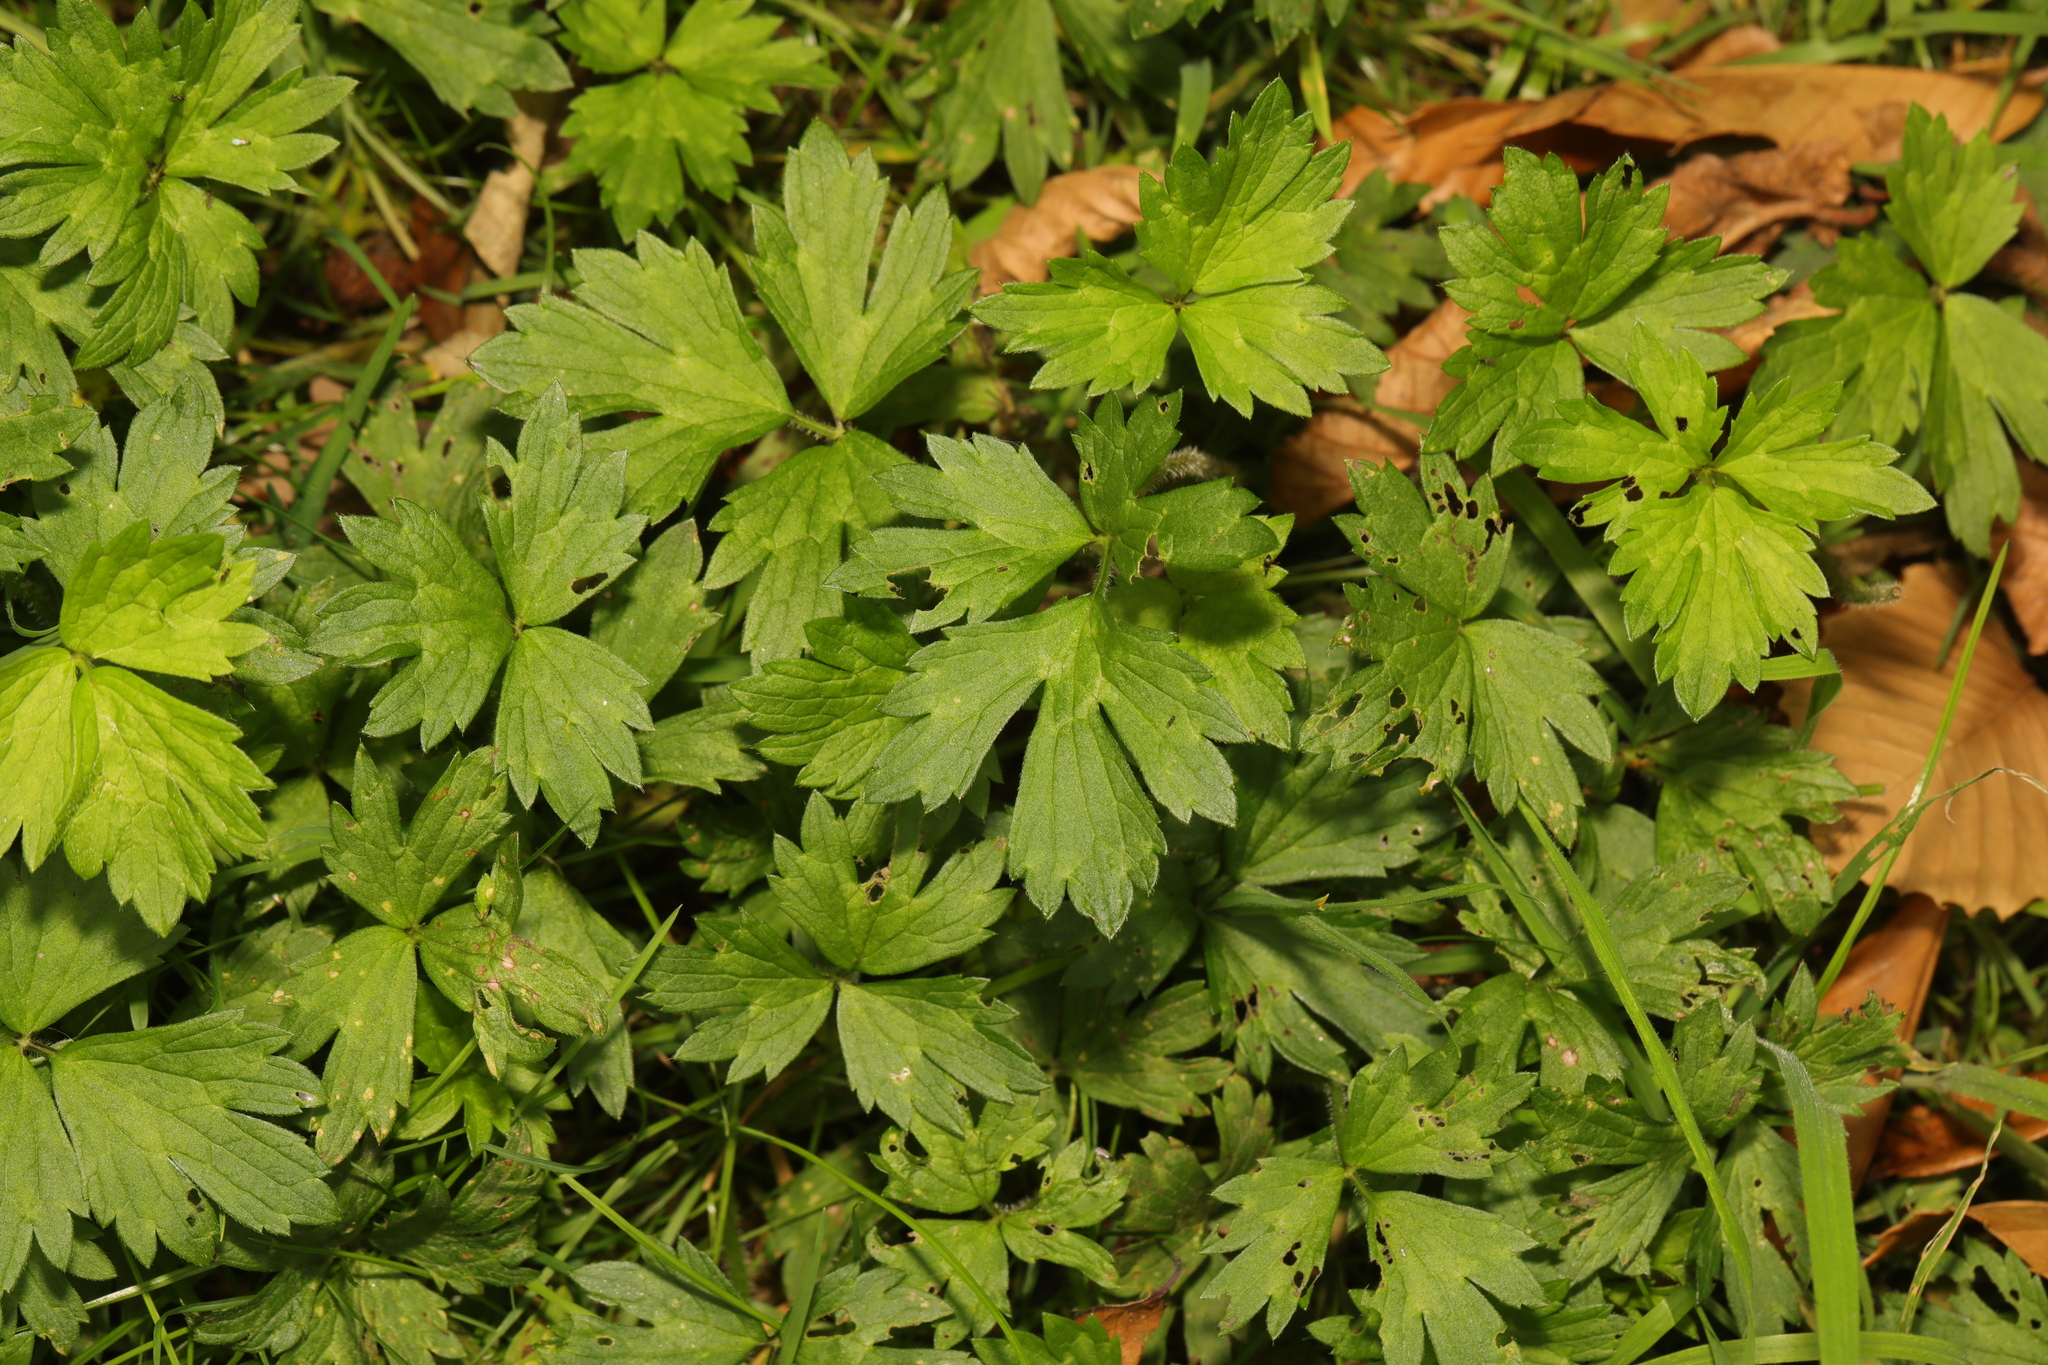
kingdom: Plantae
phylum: Tracheophyta
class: Magnoliopsida
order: Ranunculales
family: Ranunculaceae
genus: Ranunculus
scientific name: Ranunculus repens
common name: Creeping buttercup
